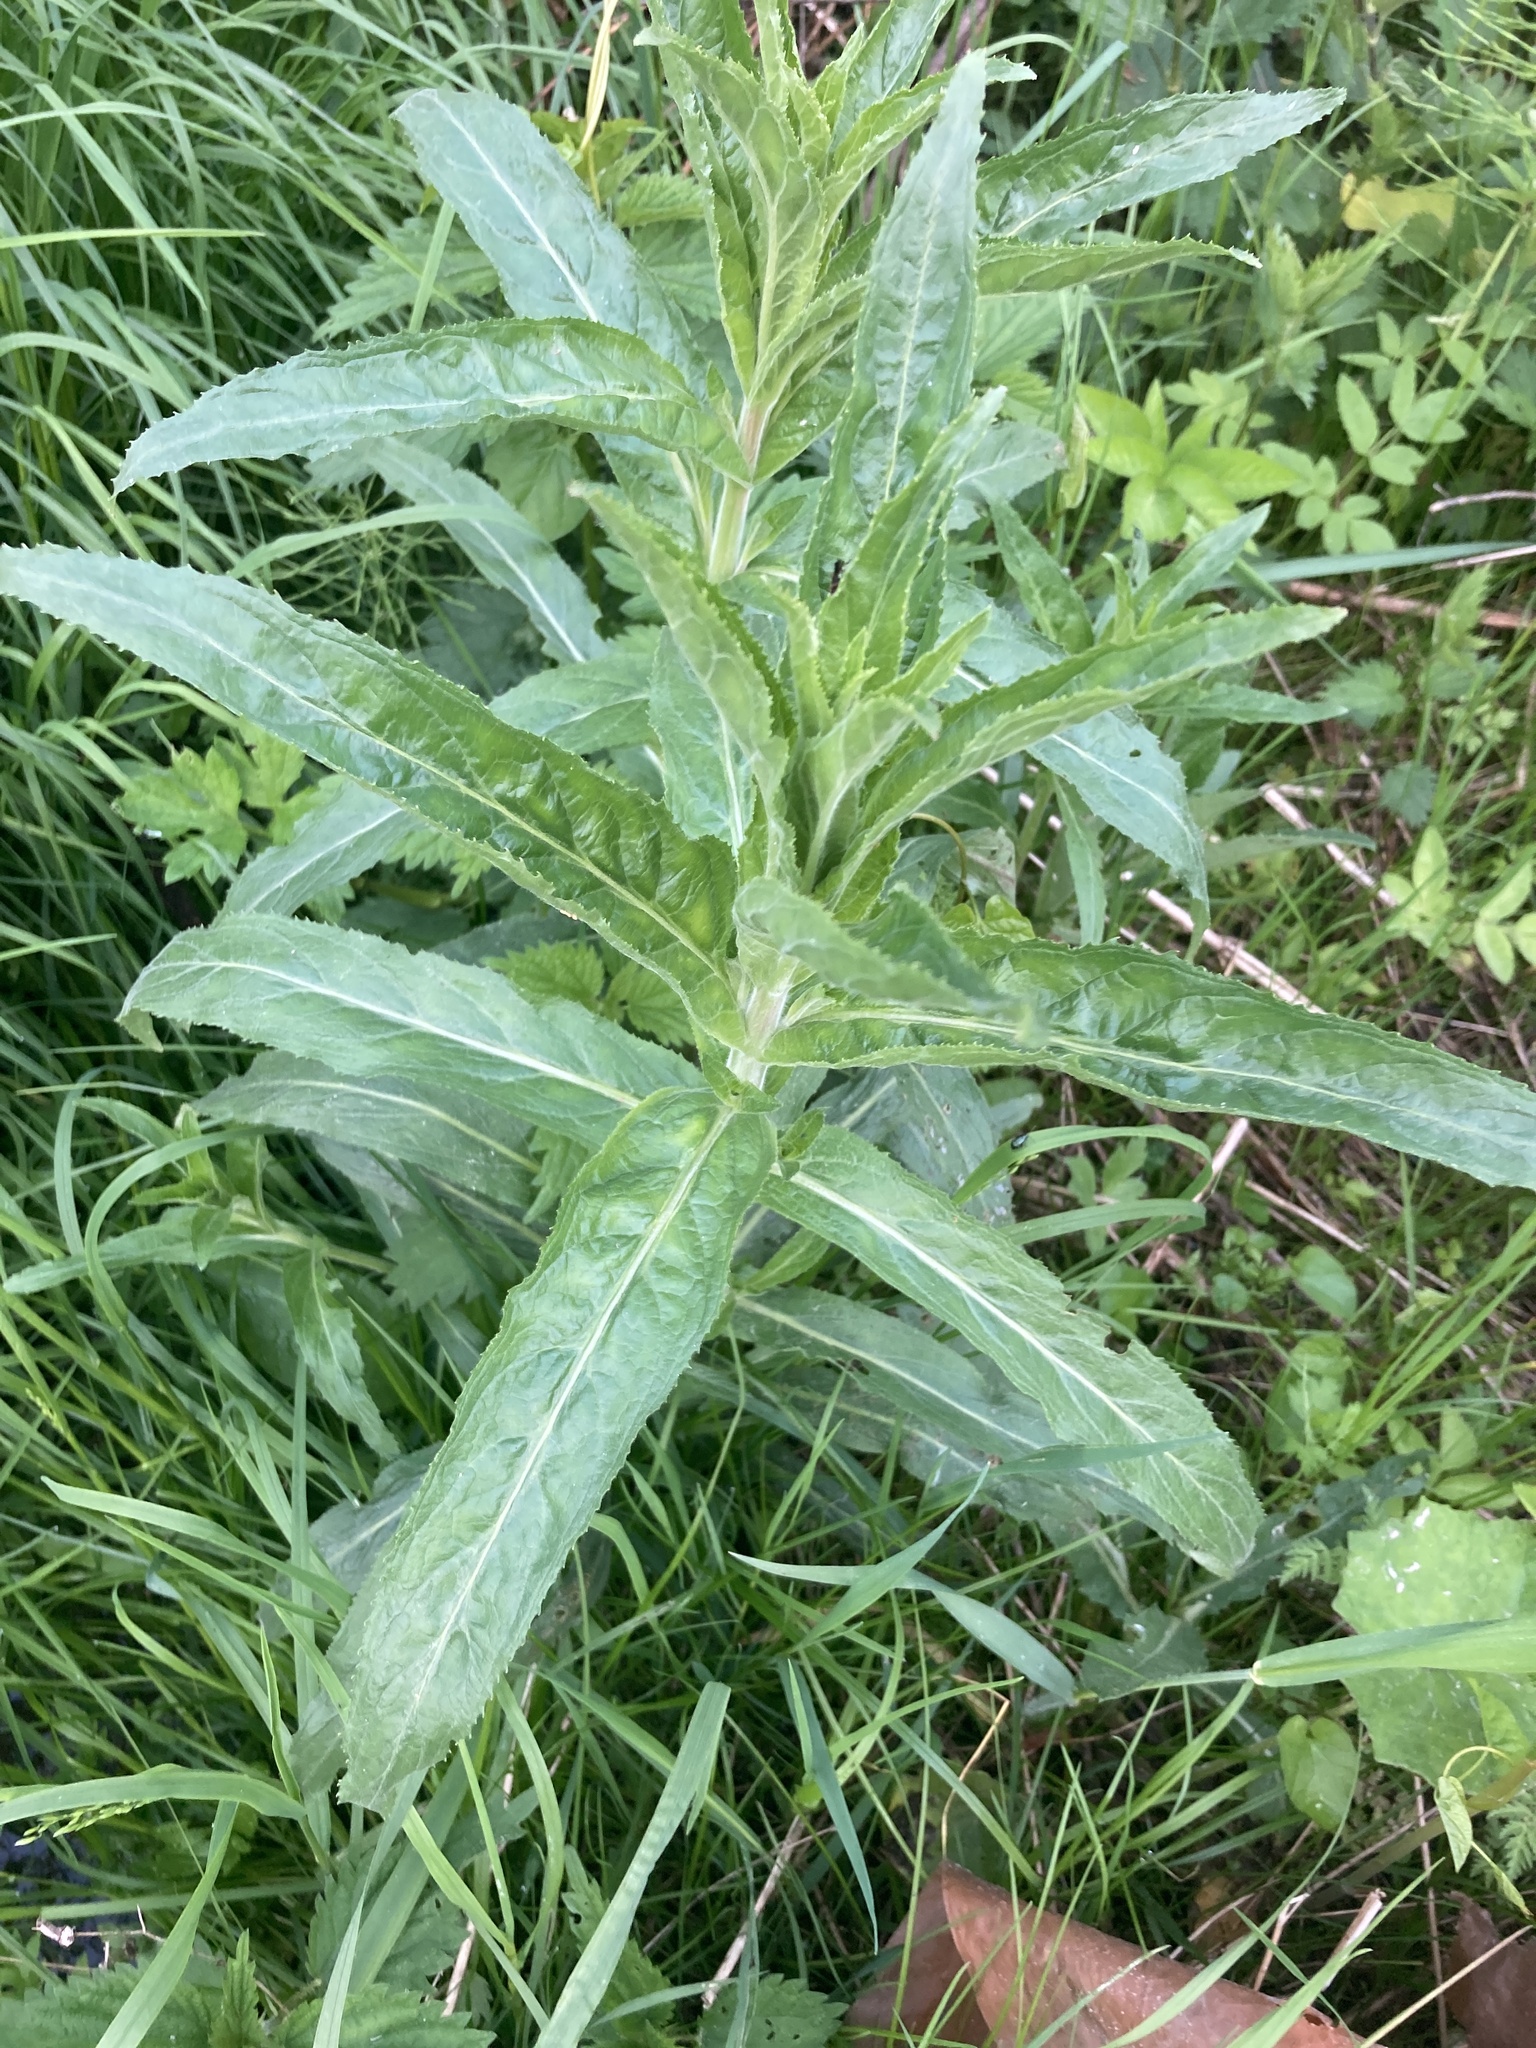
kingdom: Plantae
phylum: Tracheophyta
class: Magnoliopsida
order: Myrtales
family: Onagraceae
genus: Epilobium
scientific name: Epilobium hirsutum
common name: Great willowherb
